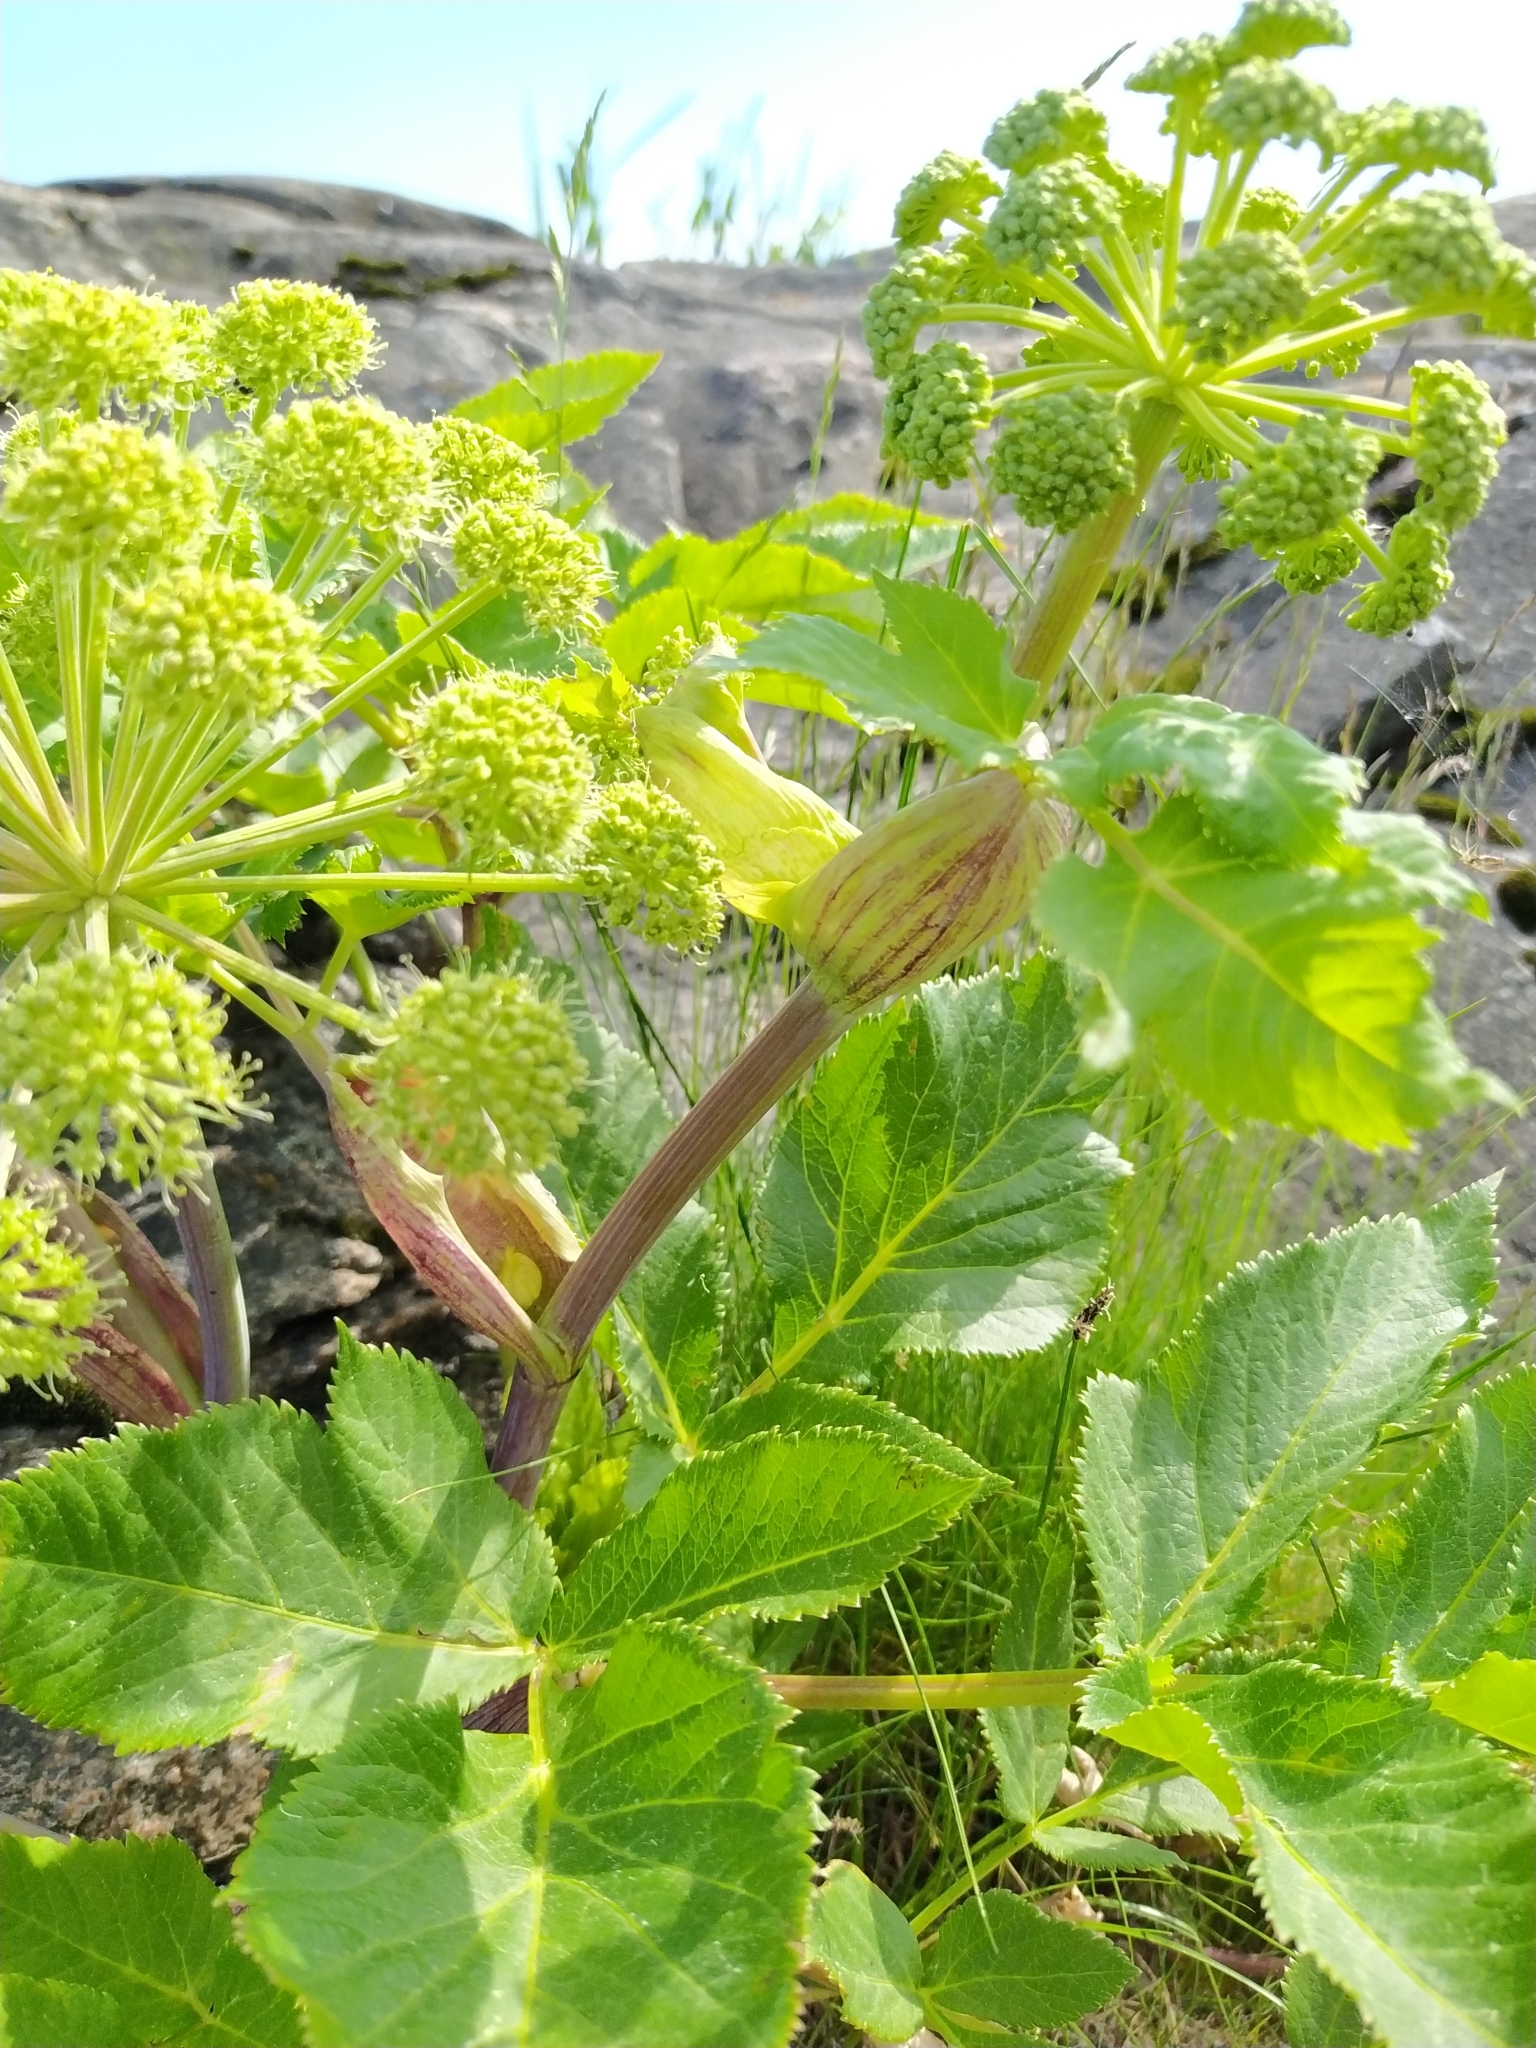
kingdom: Plantae
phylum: Tracheophyta
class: Magnoliopsida
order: Apiales
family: Apiaceae
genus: Angelica
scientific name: Angelica archangelica
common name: Garden angelica
